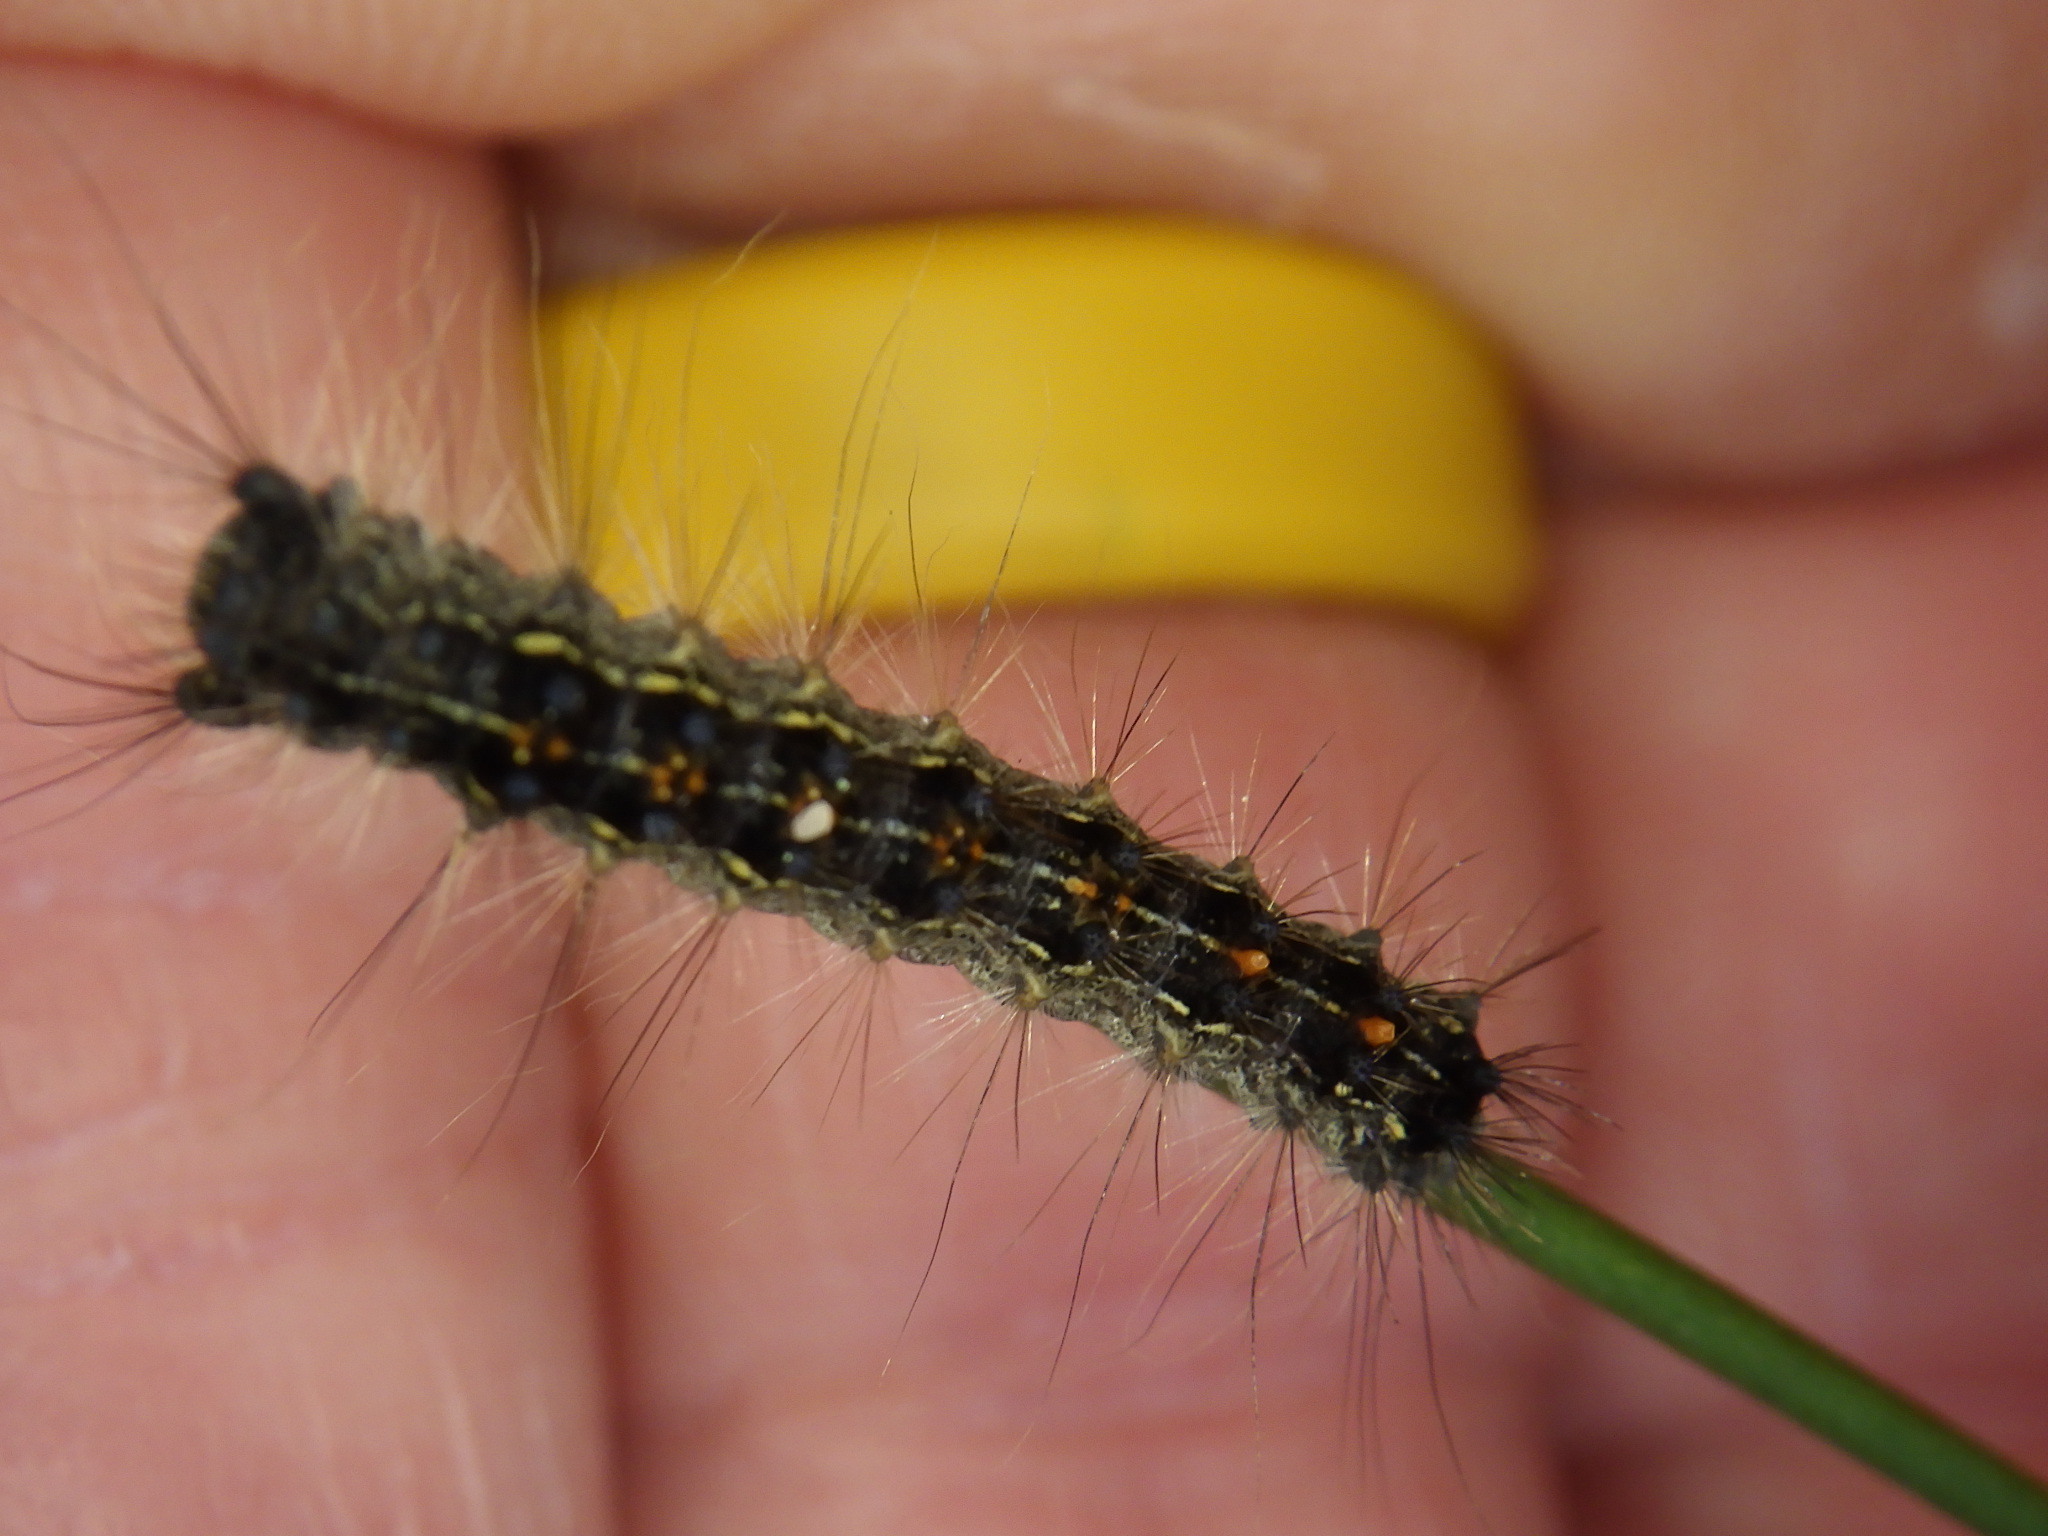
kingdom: Animalia
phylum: Arthropoda
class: Insecta
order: Lepidoptera
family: Erebidae
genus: Lymantria
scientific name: Lymantria dispar
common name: Gypsy moth
